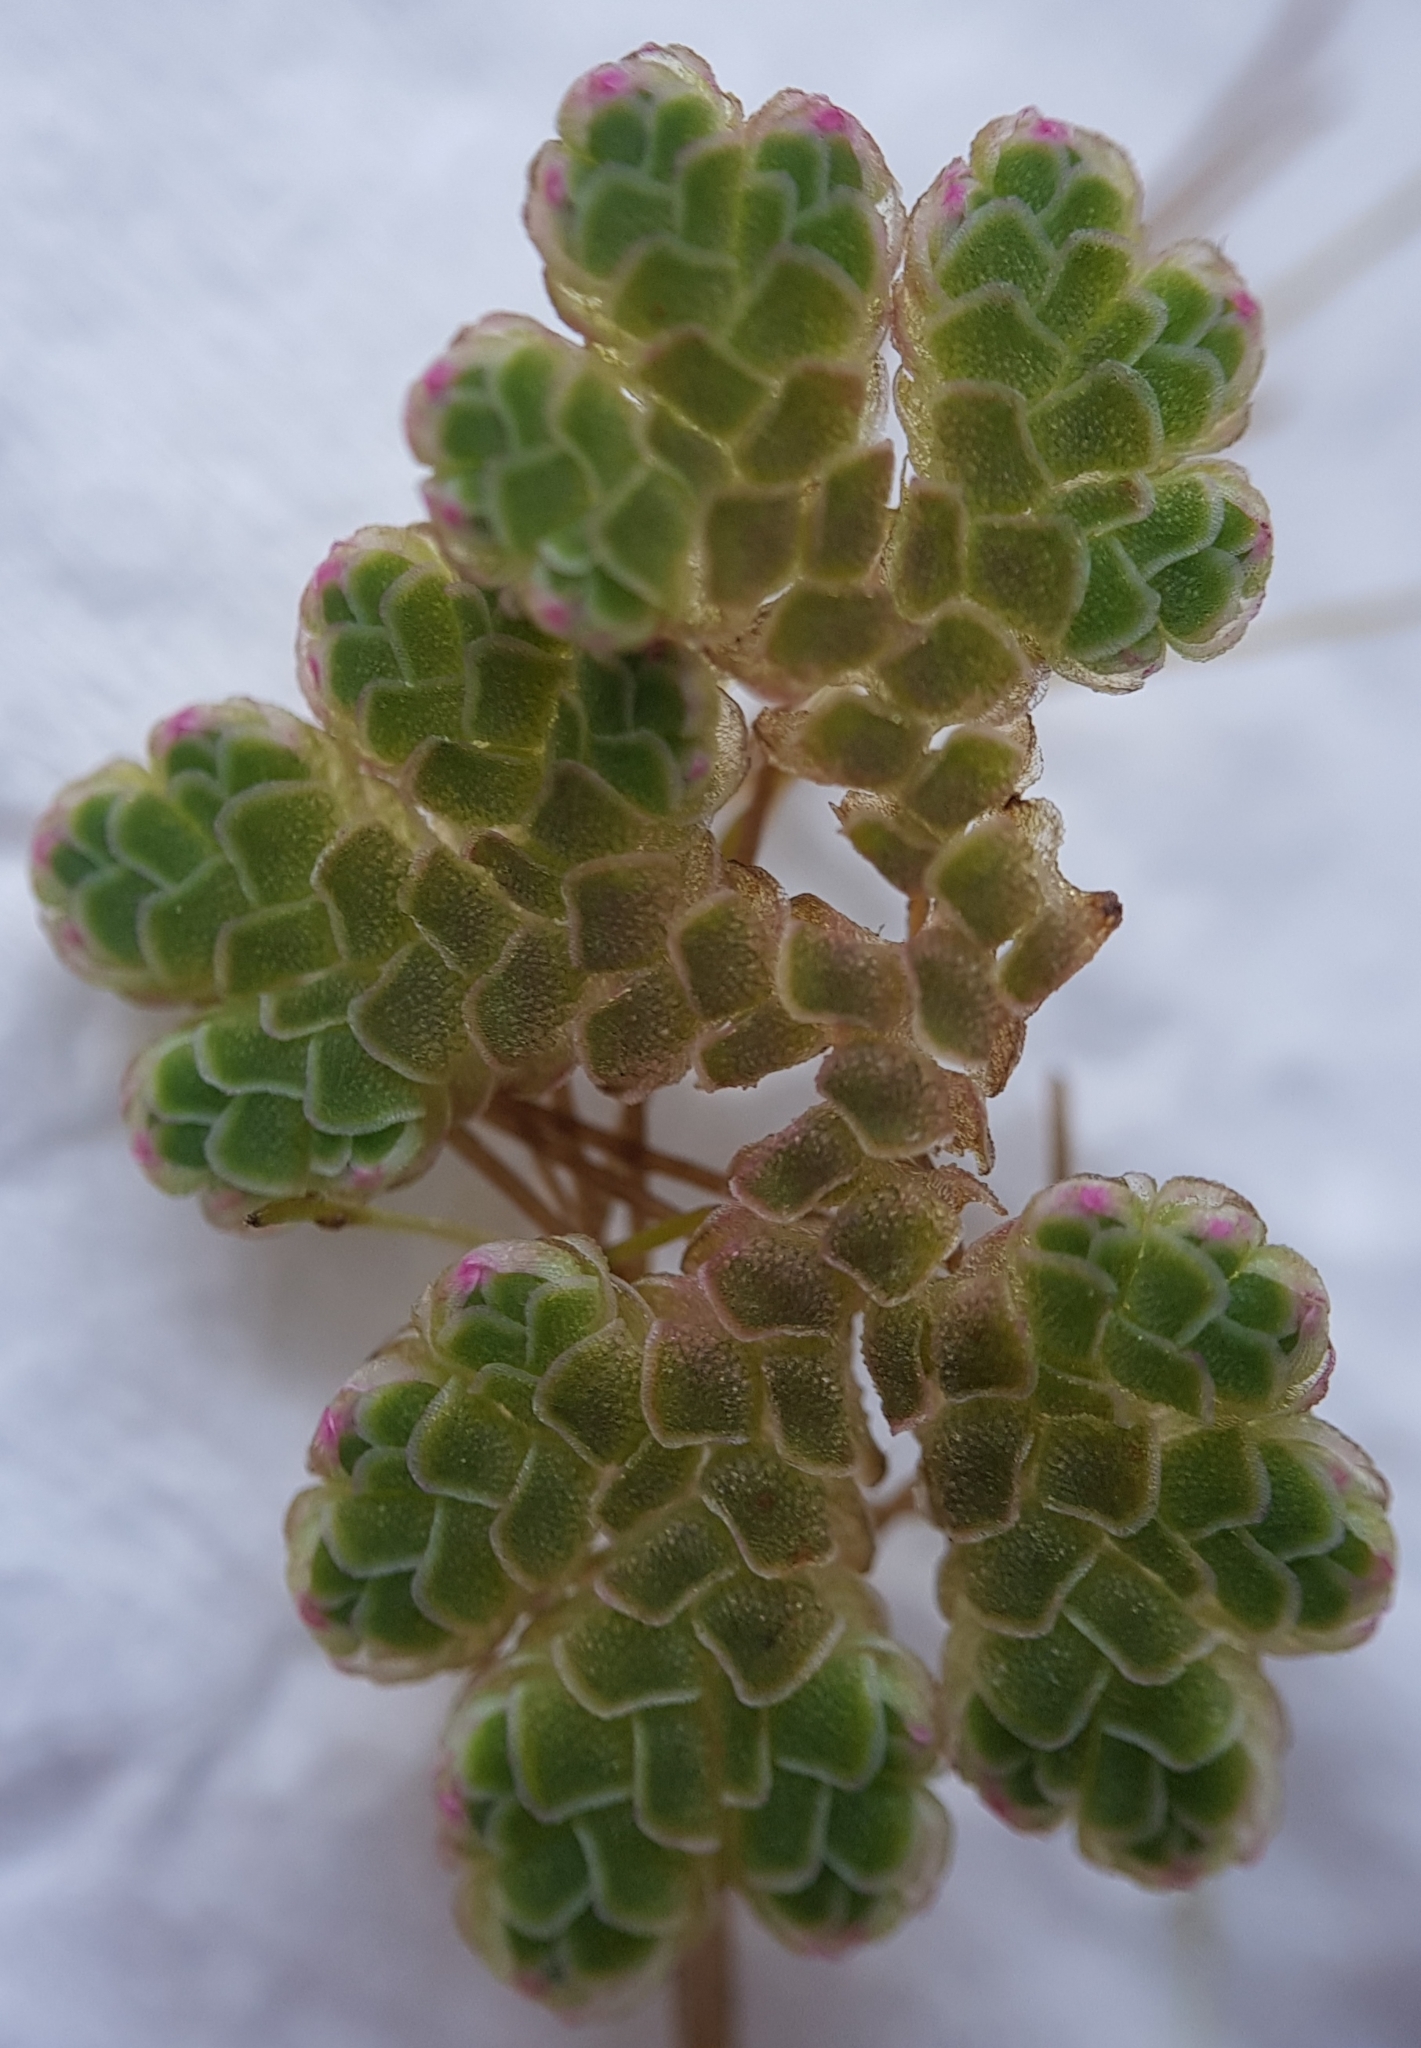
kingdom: Plantae
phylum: Tracheophyta
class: Polypodiopsida
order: Salviniales
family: Salviniaceae
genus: Azolla
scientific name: Azolla rubra
